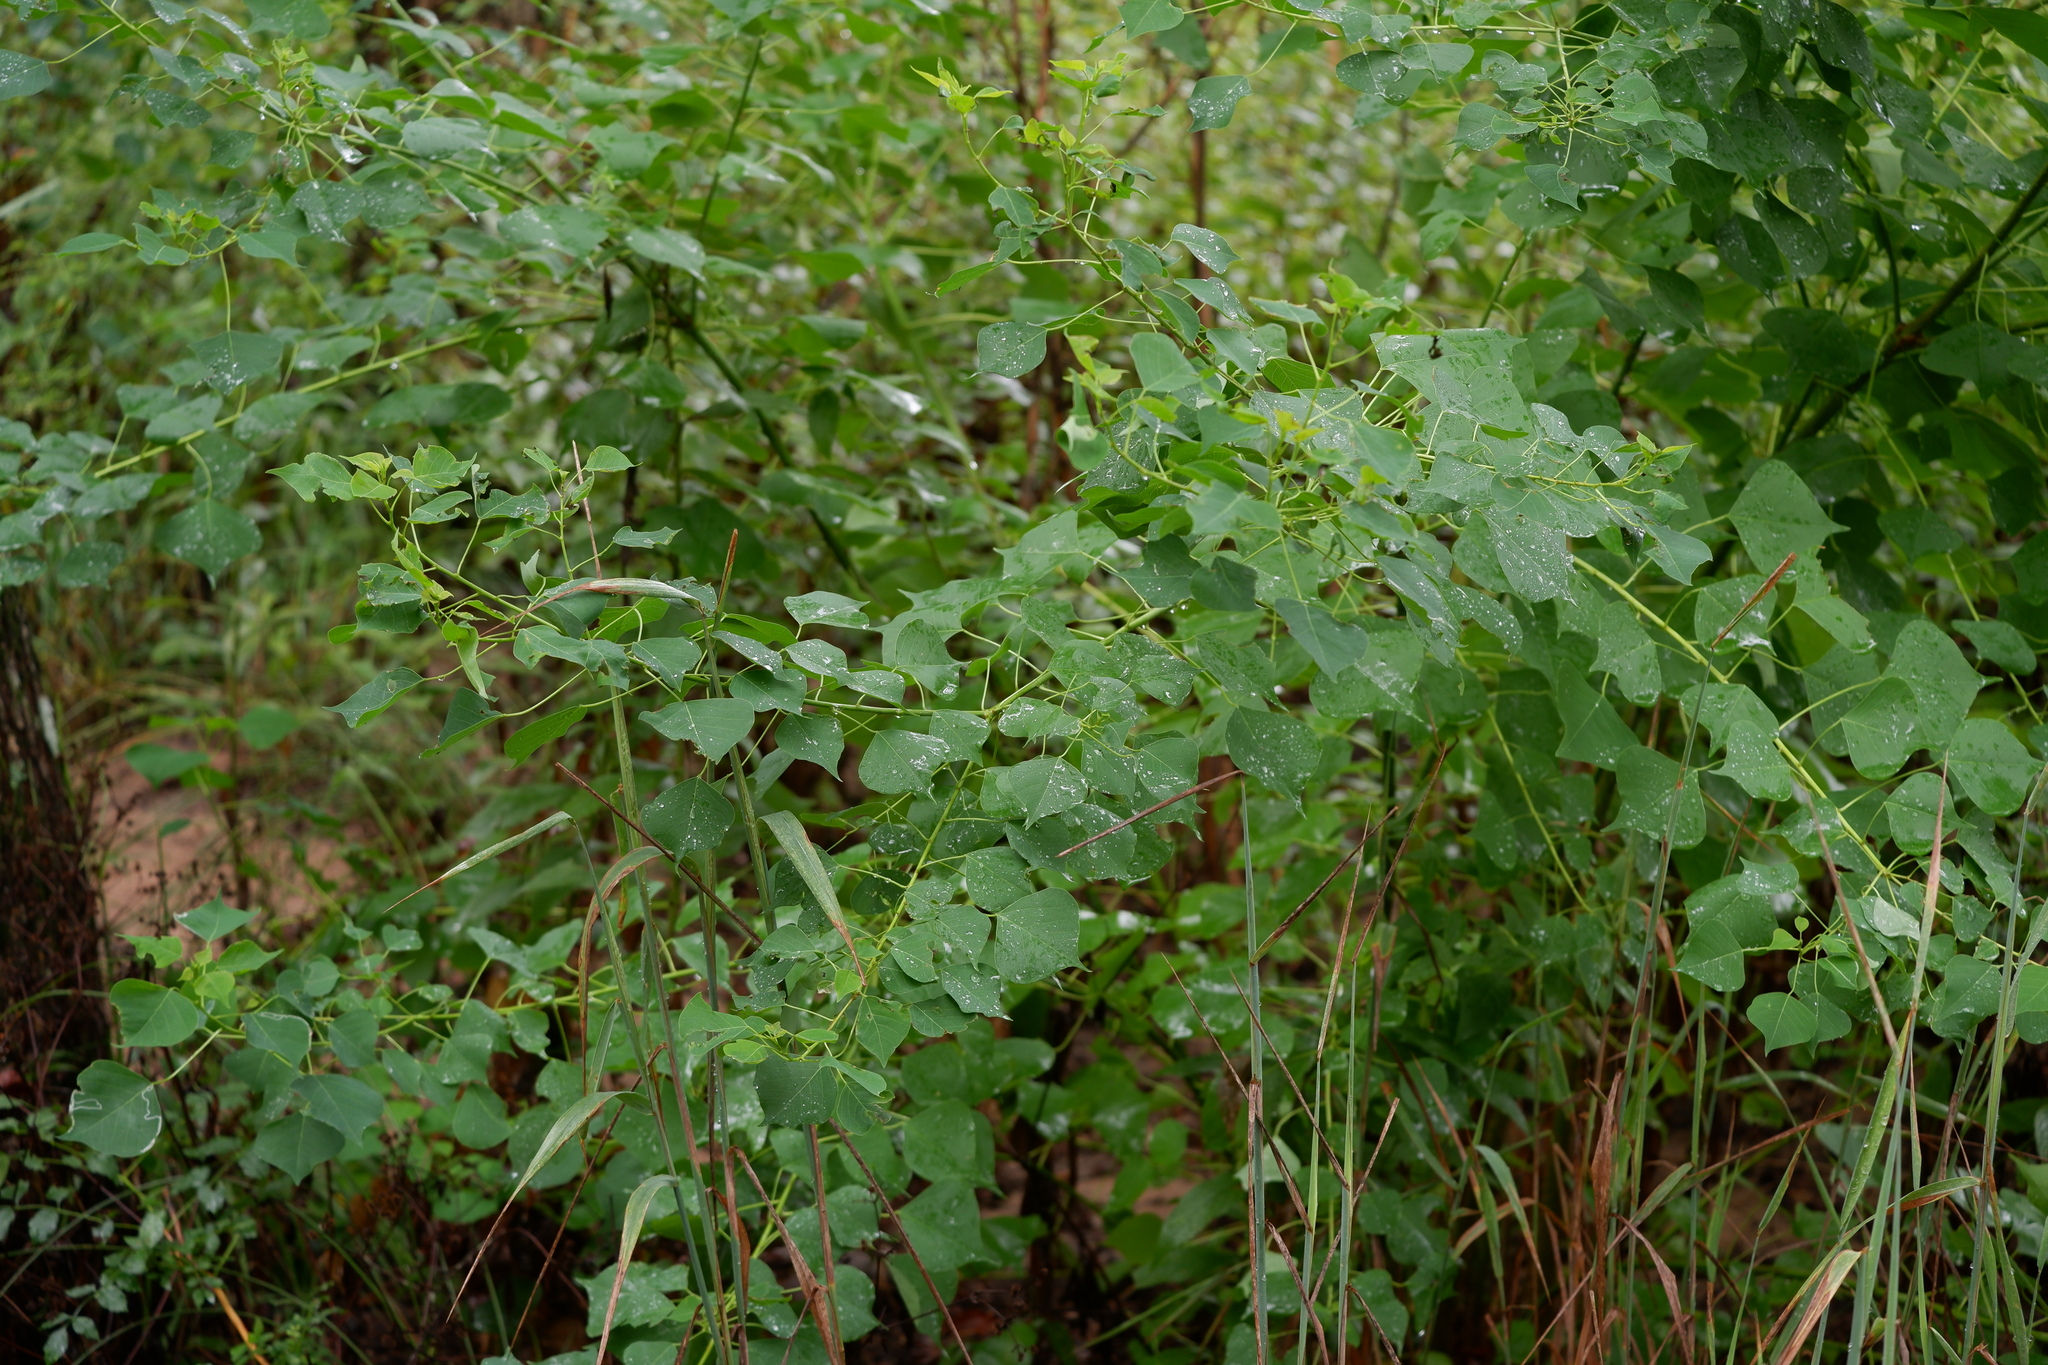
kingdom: Plantae
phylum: Tracheophyta
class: Magnoliopsida
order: Malpighiales
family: Euphorbiaceae
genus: Triadica
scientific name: Triadica sebifera
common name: Chinese tallow
